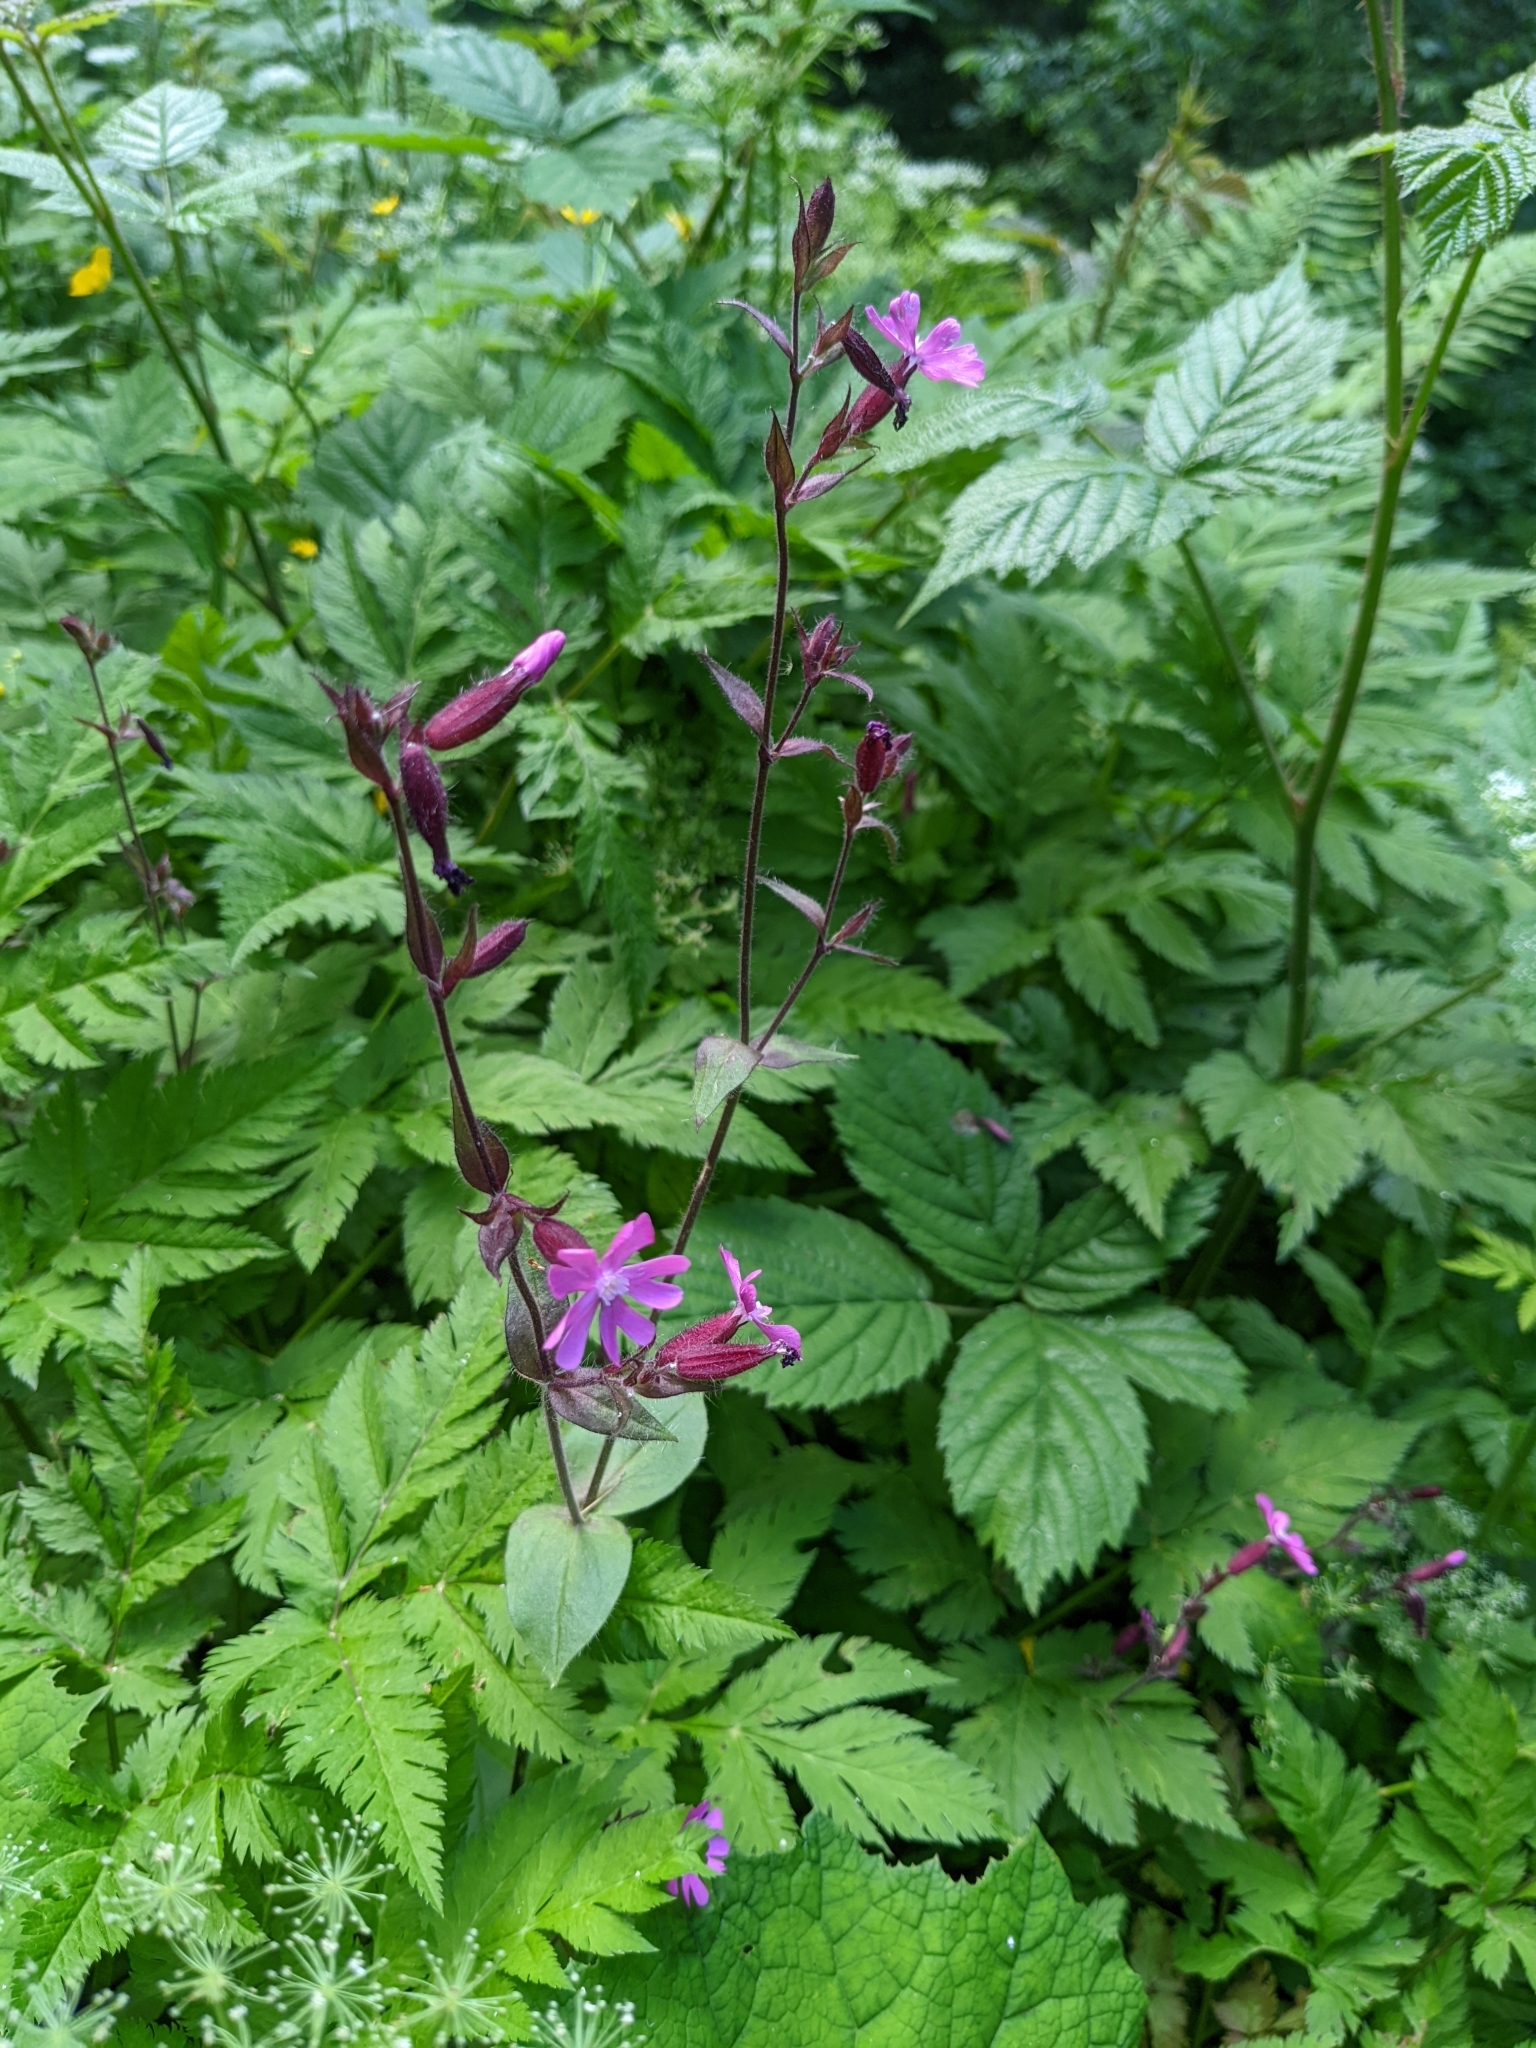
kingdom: Plantae
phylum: Tracheophyta
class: Magnoliopsida
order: Caryophyllales
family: Caryophyllaceae
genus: Silene
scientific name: Silene dioica
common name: Red campion
